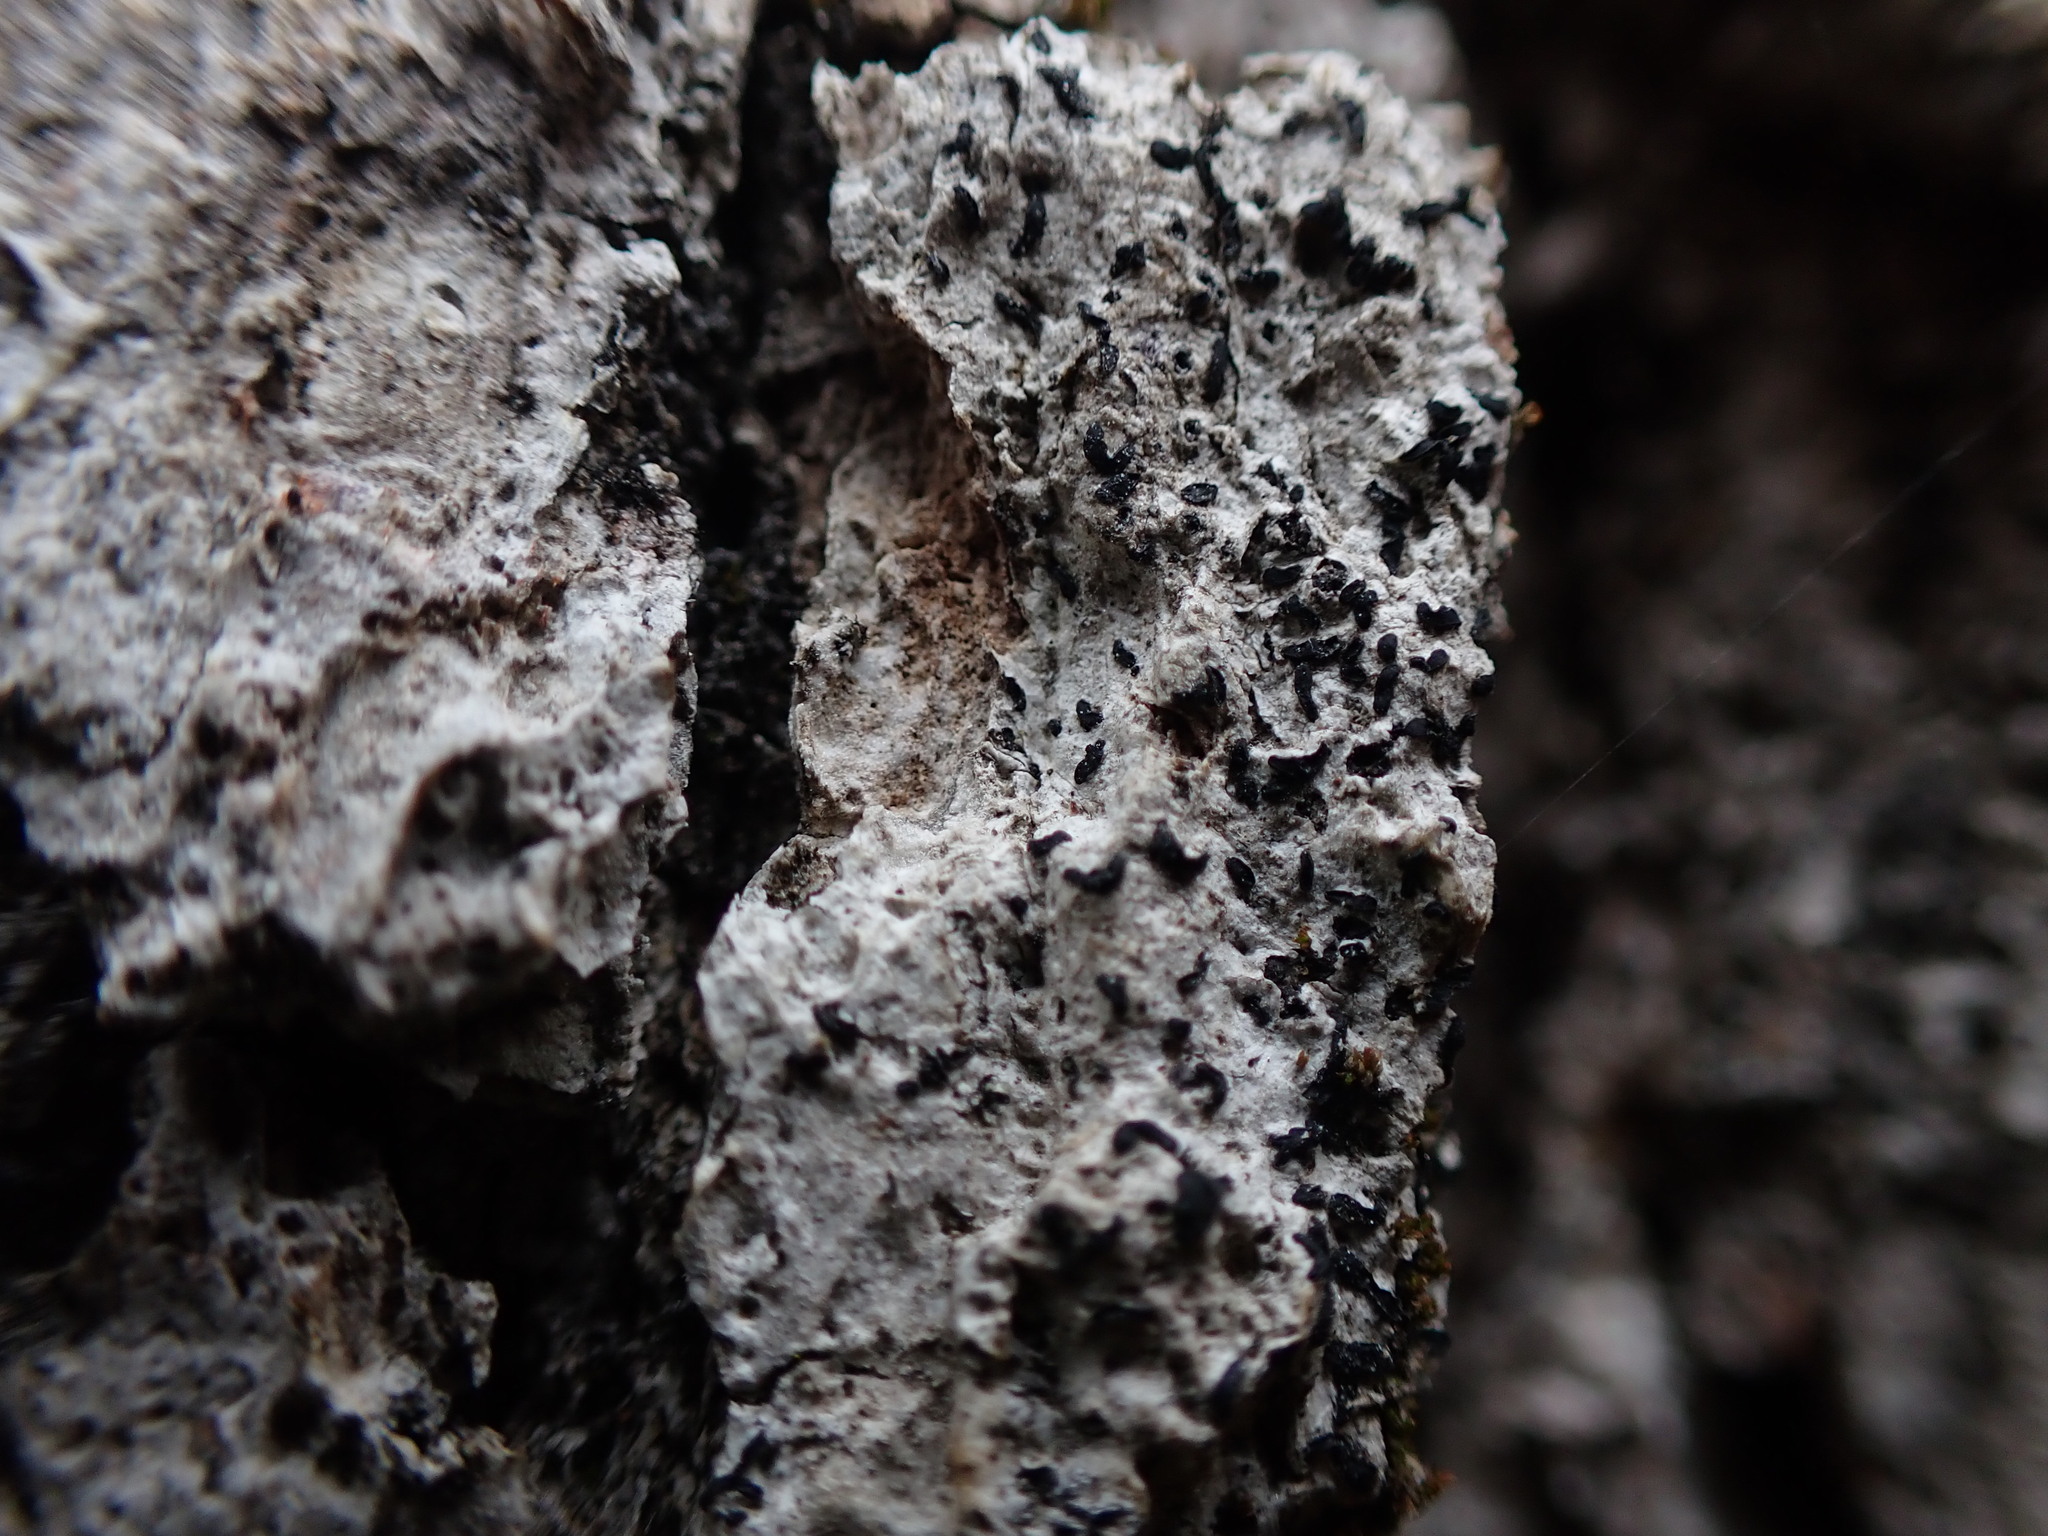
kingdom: Fungi
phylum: Ascomycota
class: Arthoniomycetes
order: Arthoniales
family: Lecanographaceae
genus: Alyxoria
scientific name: Alyxoria varia
